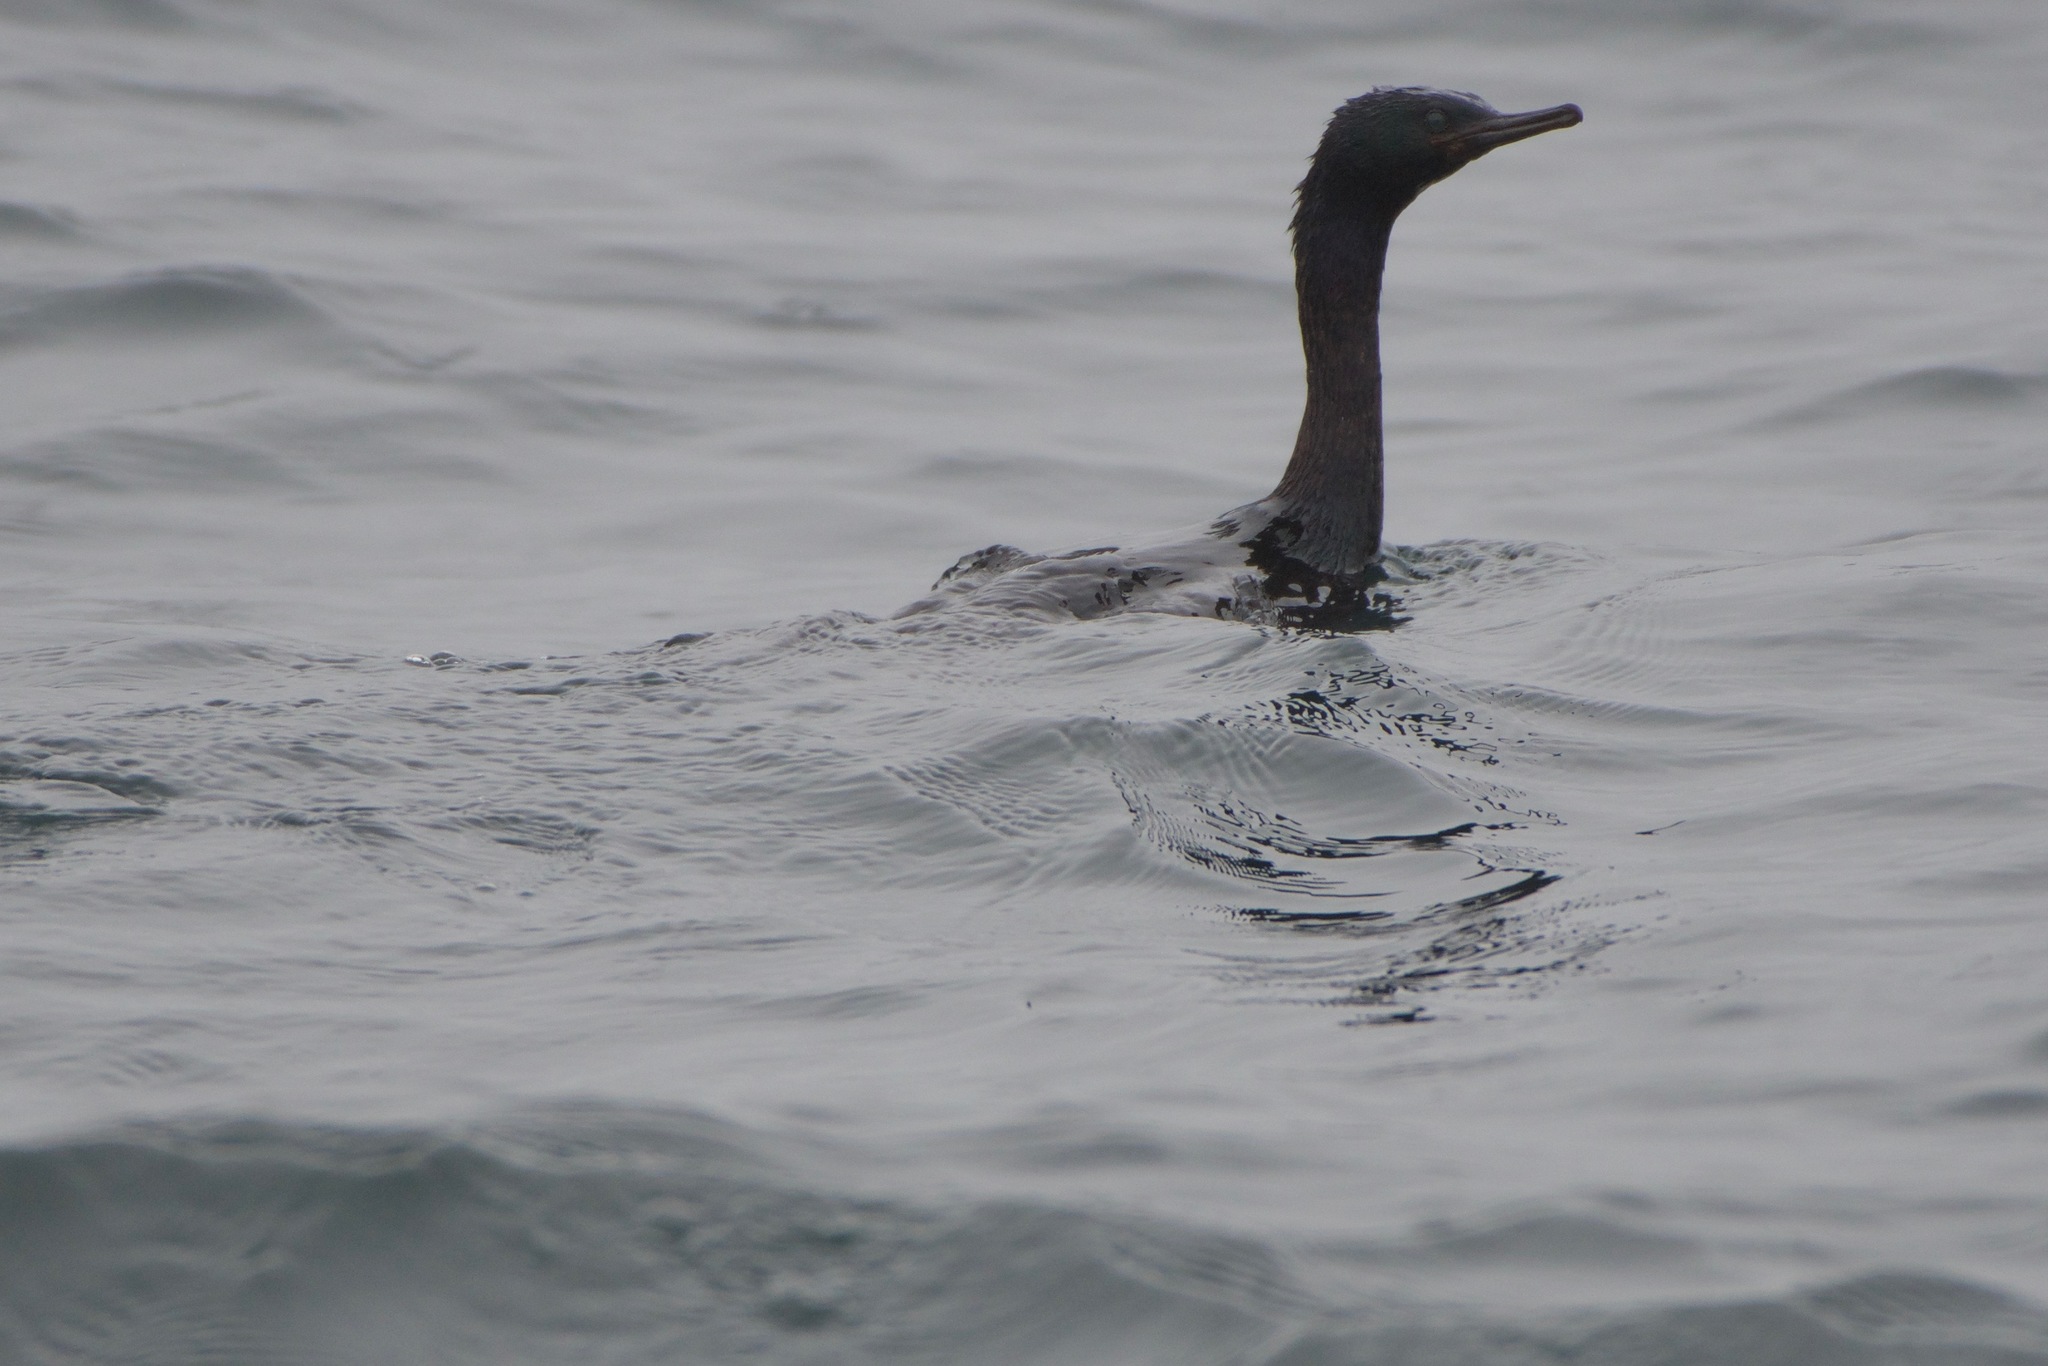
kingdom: Animalia
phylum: Chordata
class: Aves
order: Suliformes
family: Phalacrocoracidae
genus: Phalacrocorax
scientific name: Phalacrocorax pelagicus
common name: Pelagic cormorant
